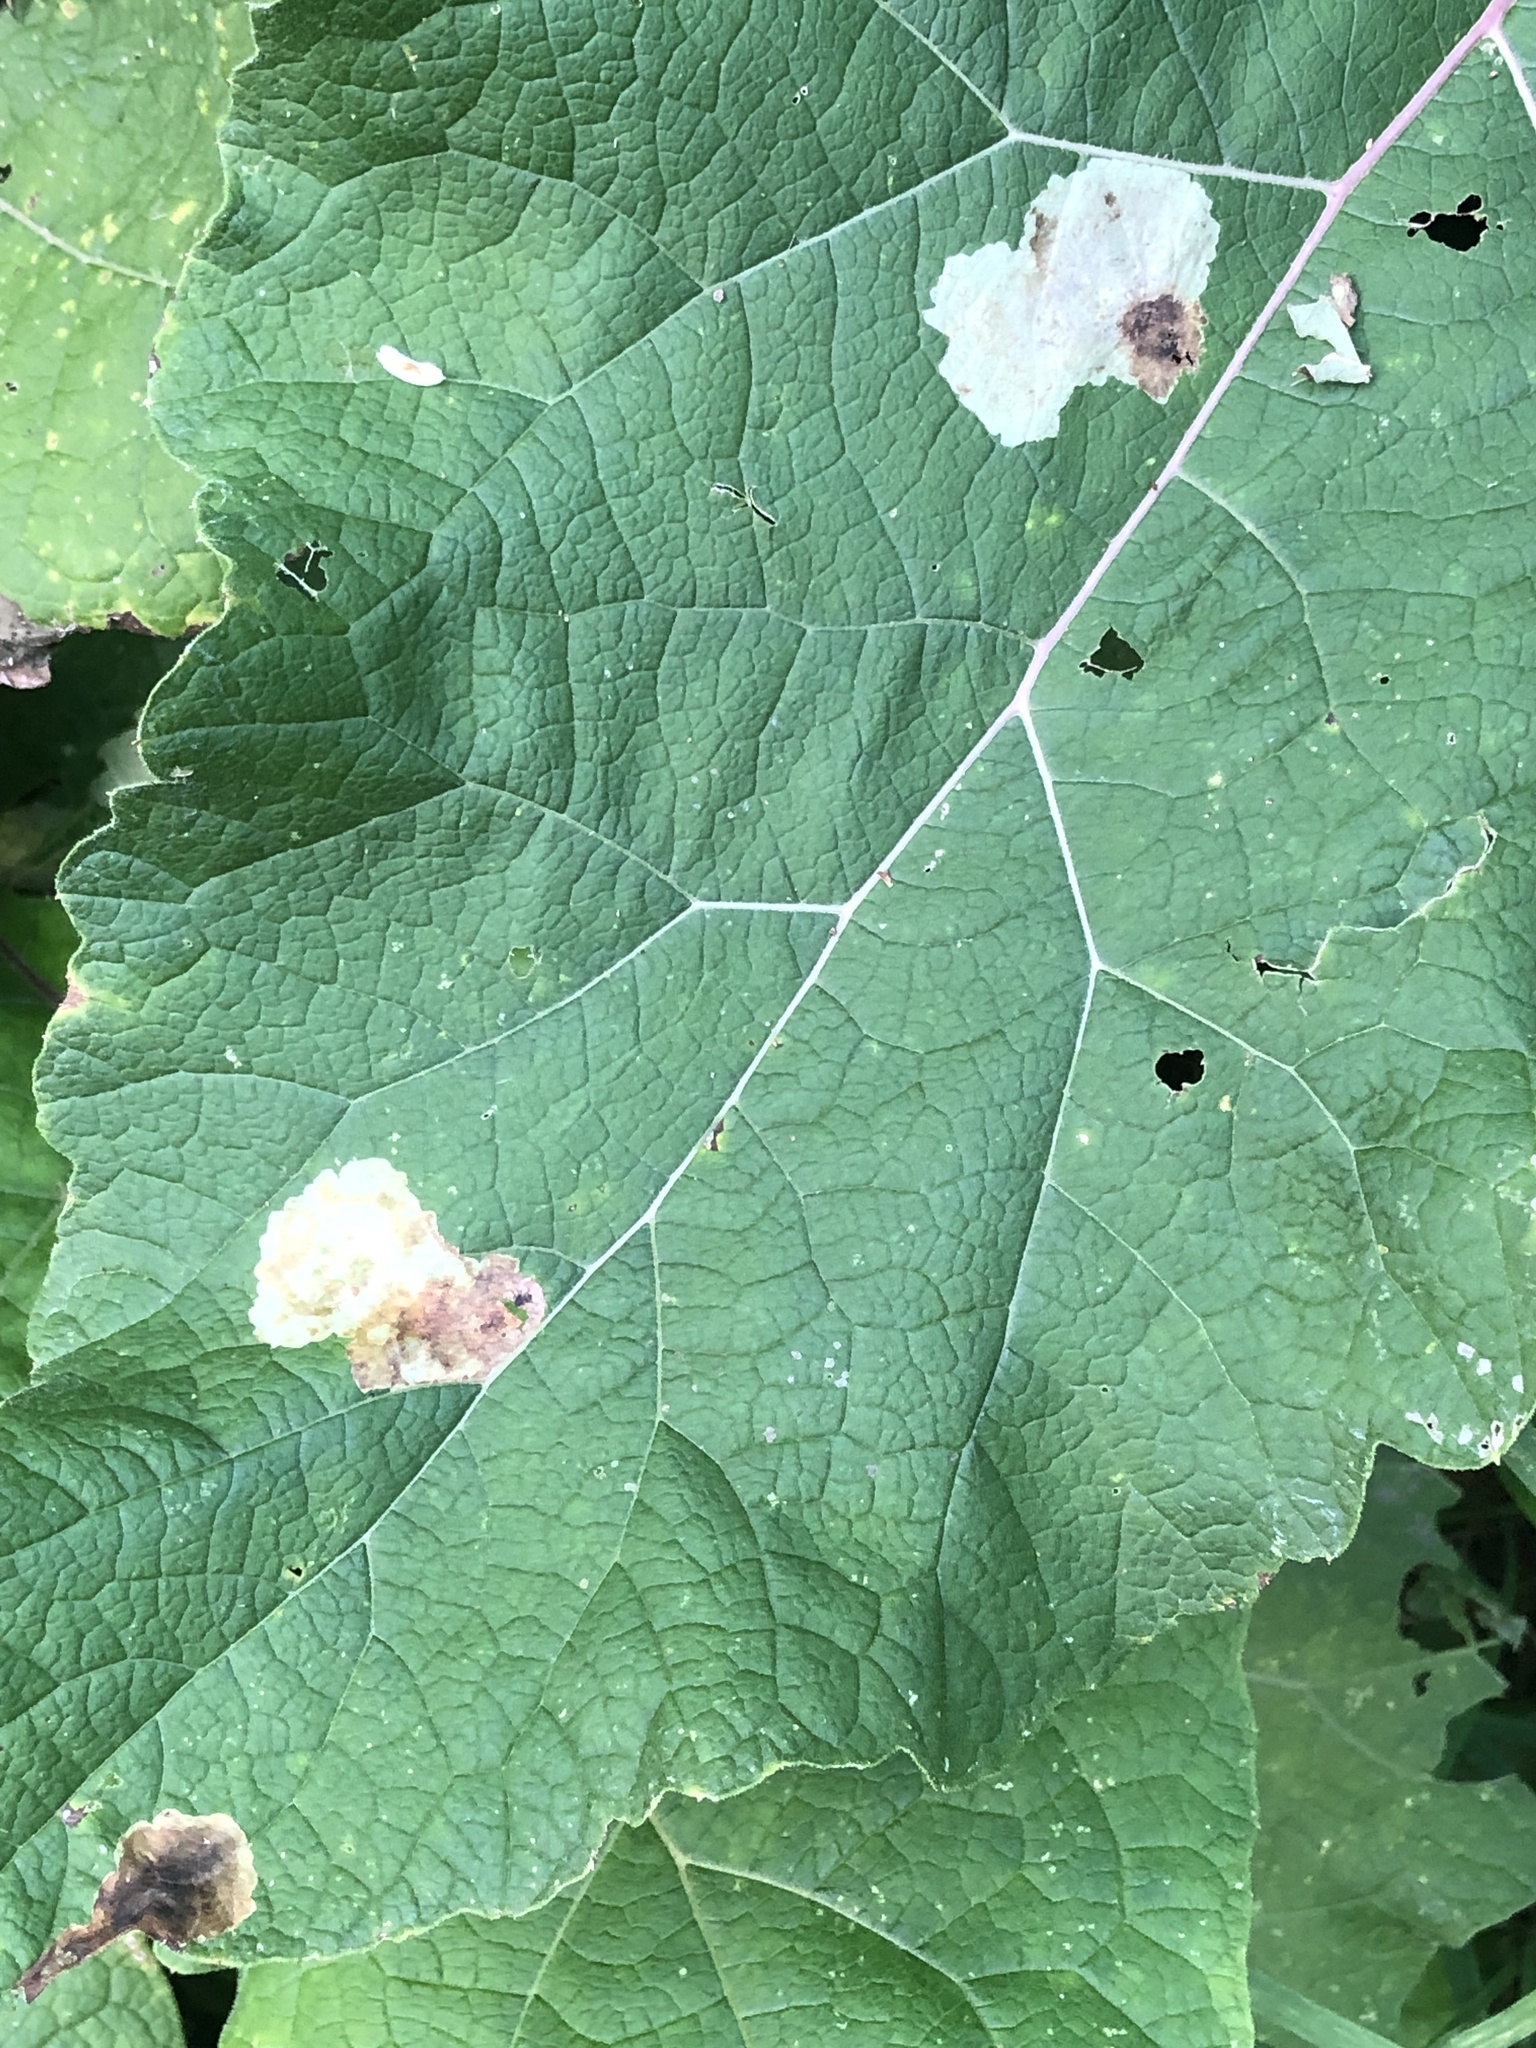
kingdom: Animalia
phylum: Arthropoda
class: Insecta
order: Diptera
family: Agromyzidae
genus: Calycomyza
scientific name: Calycomyza flavinotum
